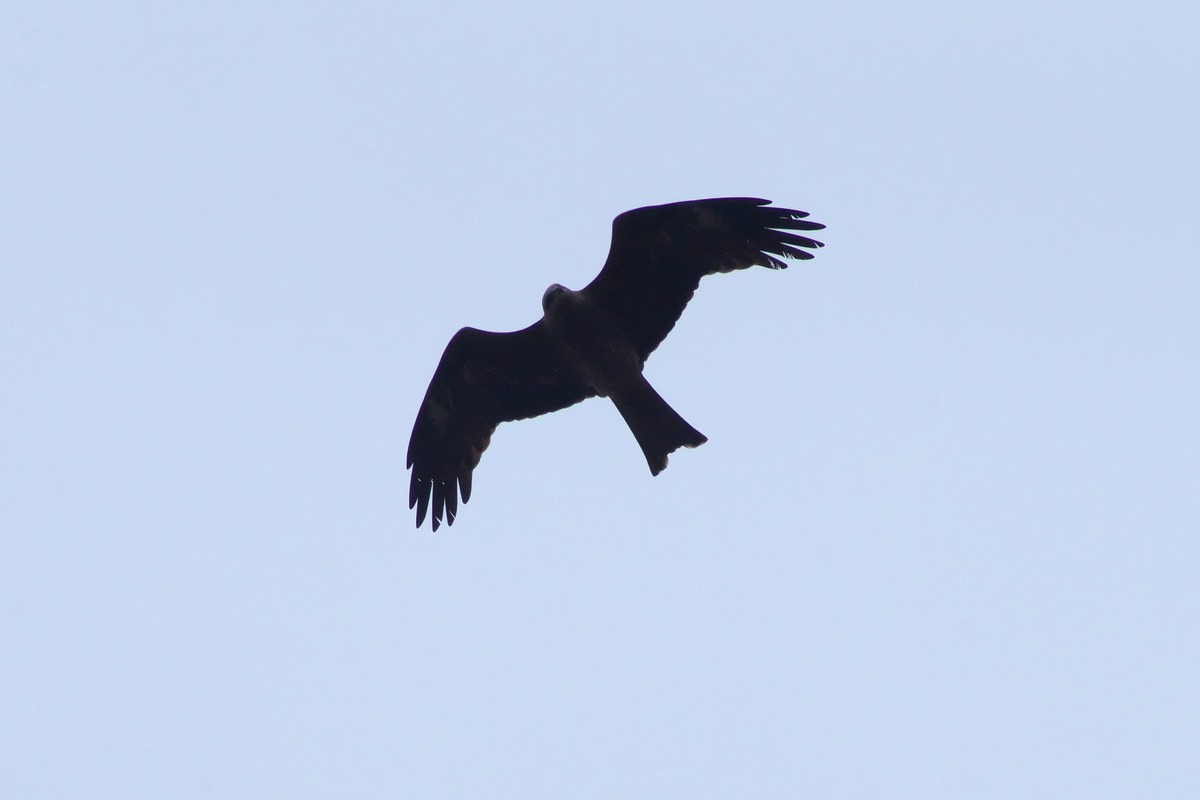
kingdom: Animalia
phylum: Chordata
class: Aves
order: Accipitriformes
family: Accipitridae
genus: Milvus
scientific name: Milvus migrans
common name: Black kite
